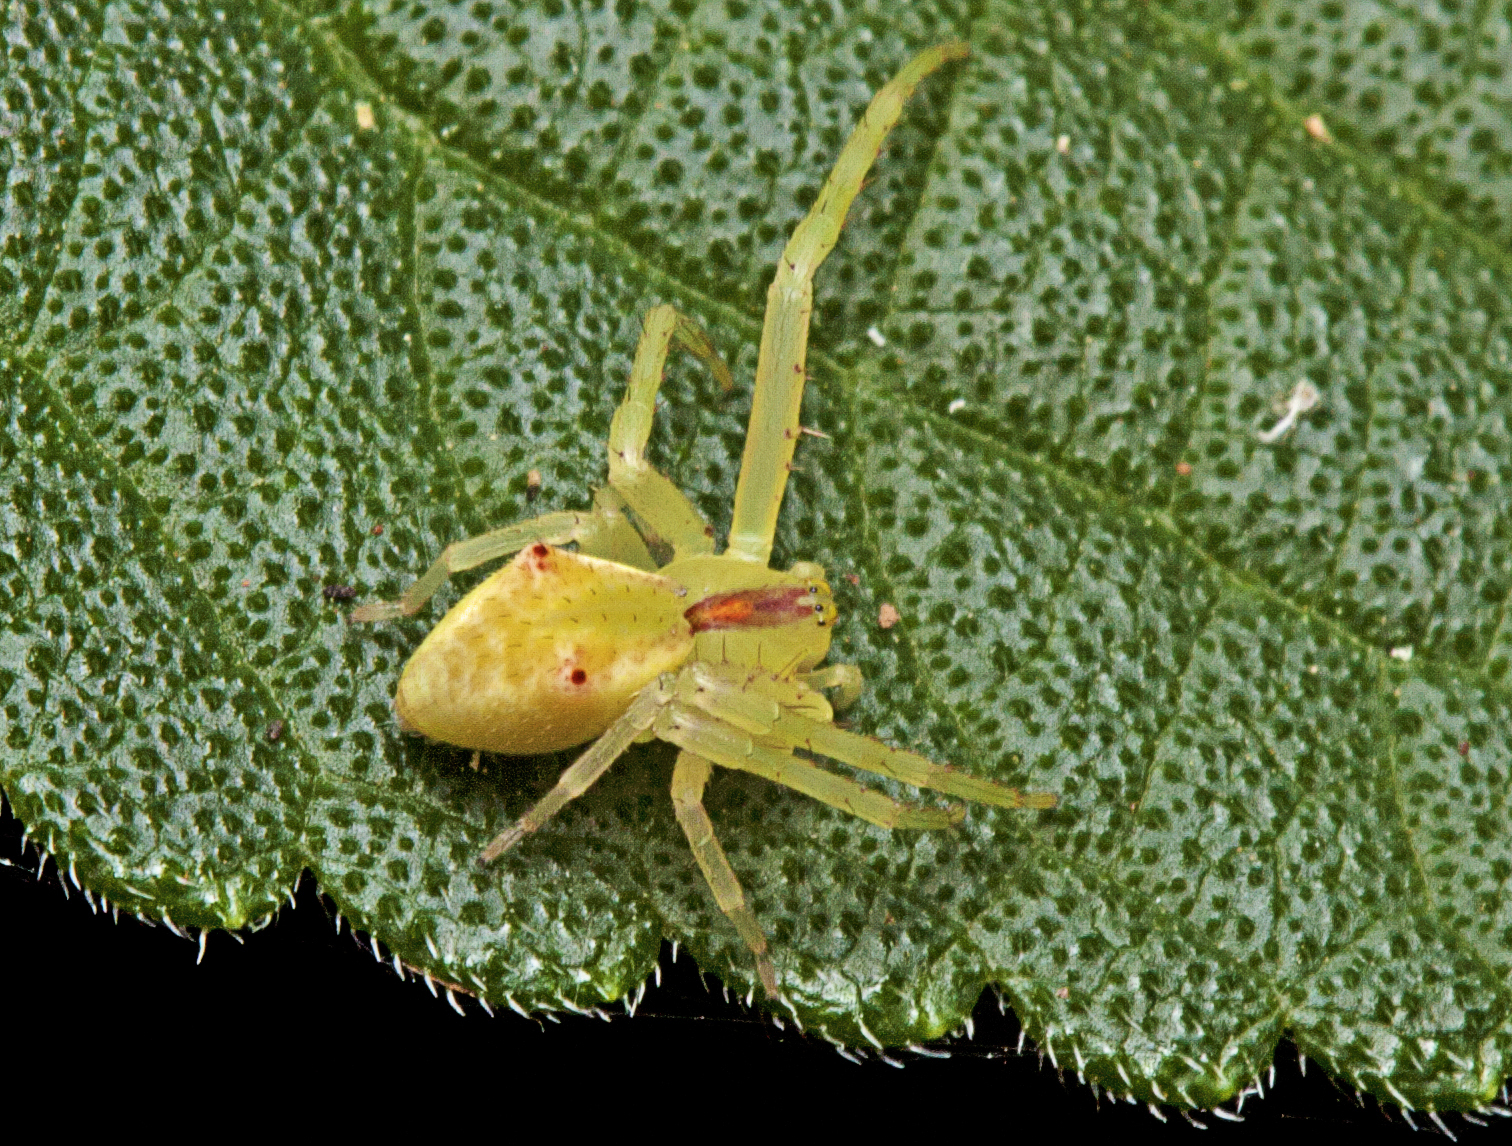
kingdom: Animalia
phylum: Arthropoda
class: Arachnida
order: Araneae
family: Thomisidae
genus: Sidymella
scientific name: Sidymella rubrosignata
